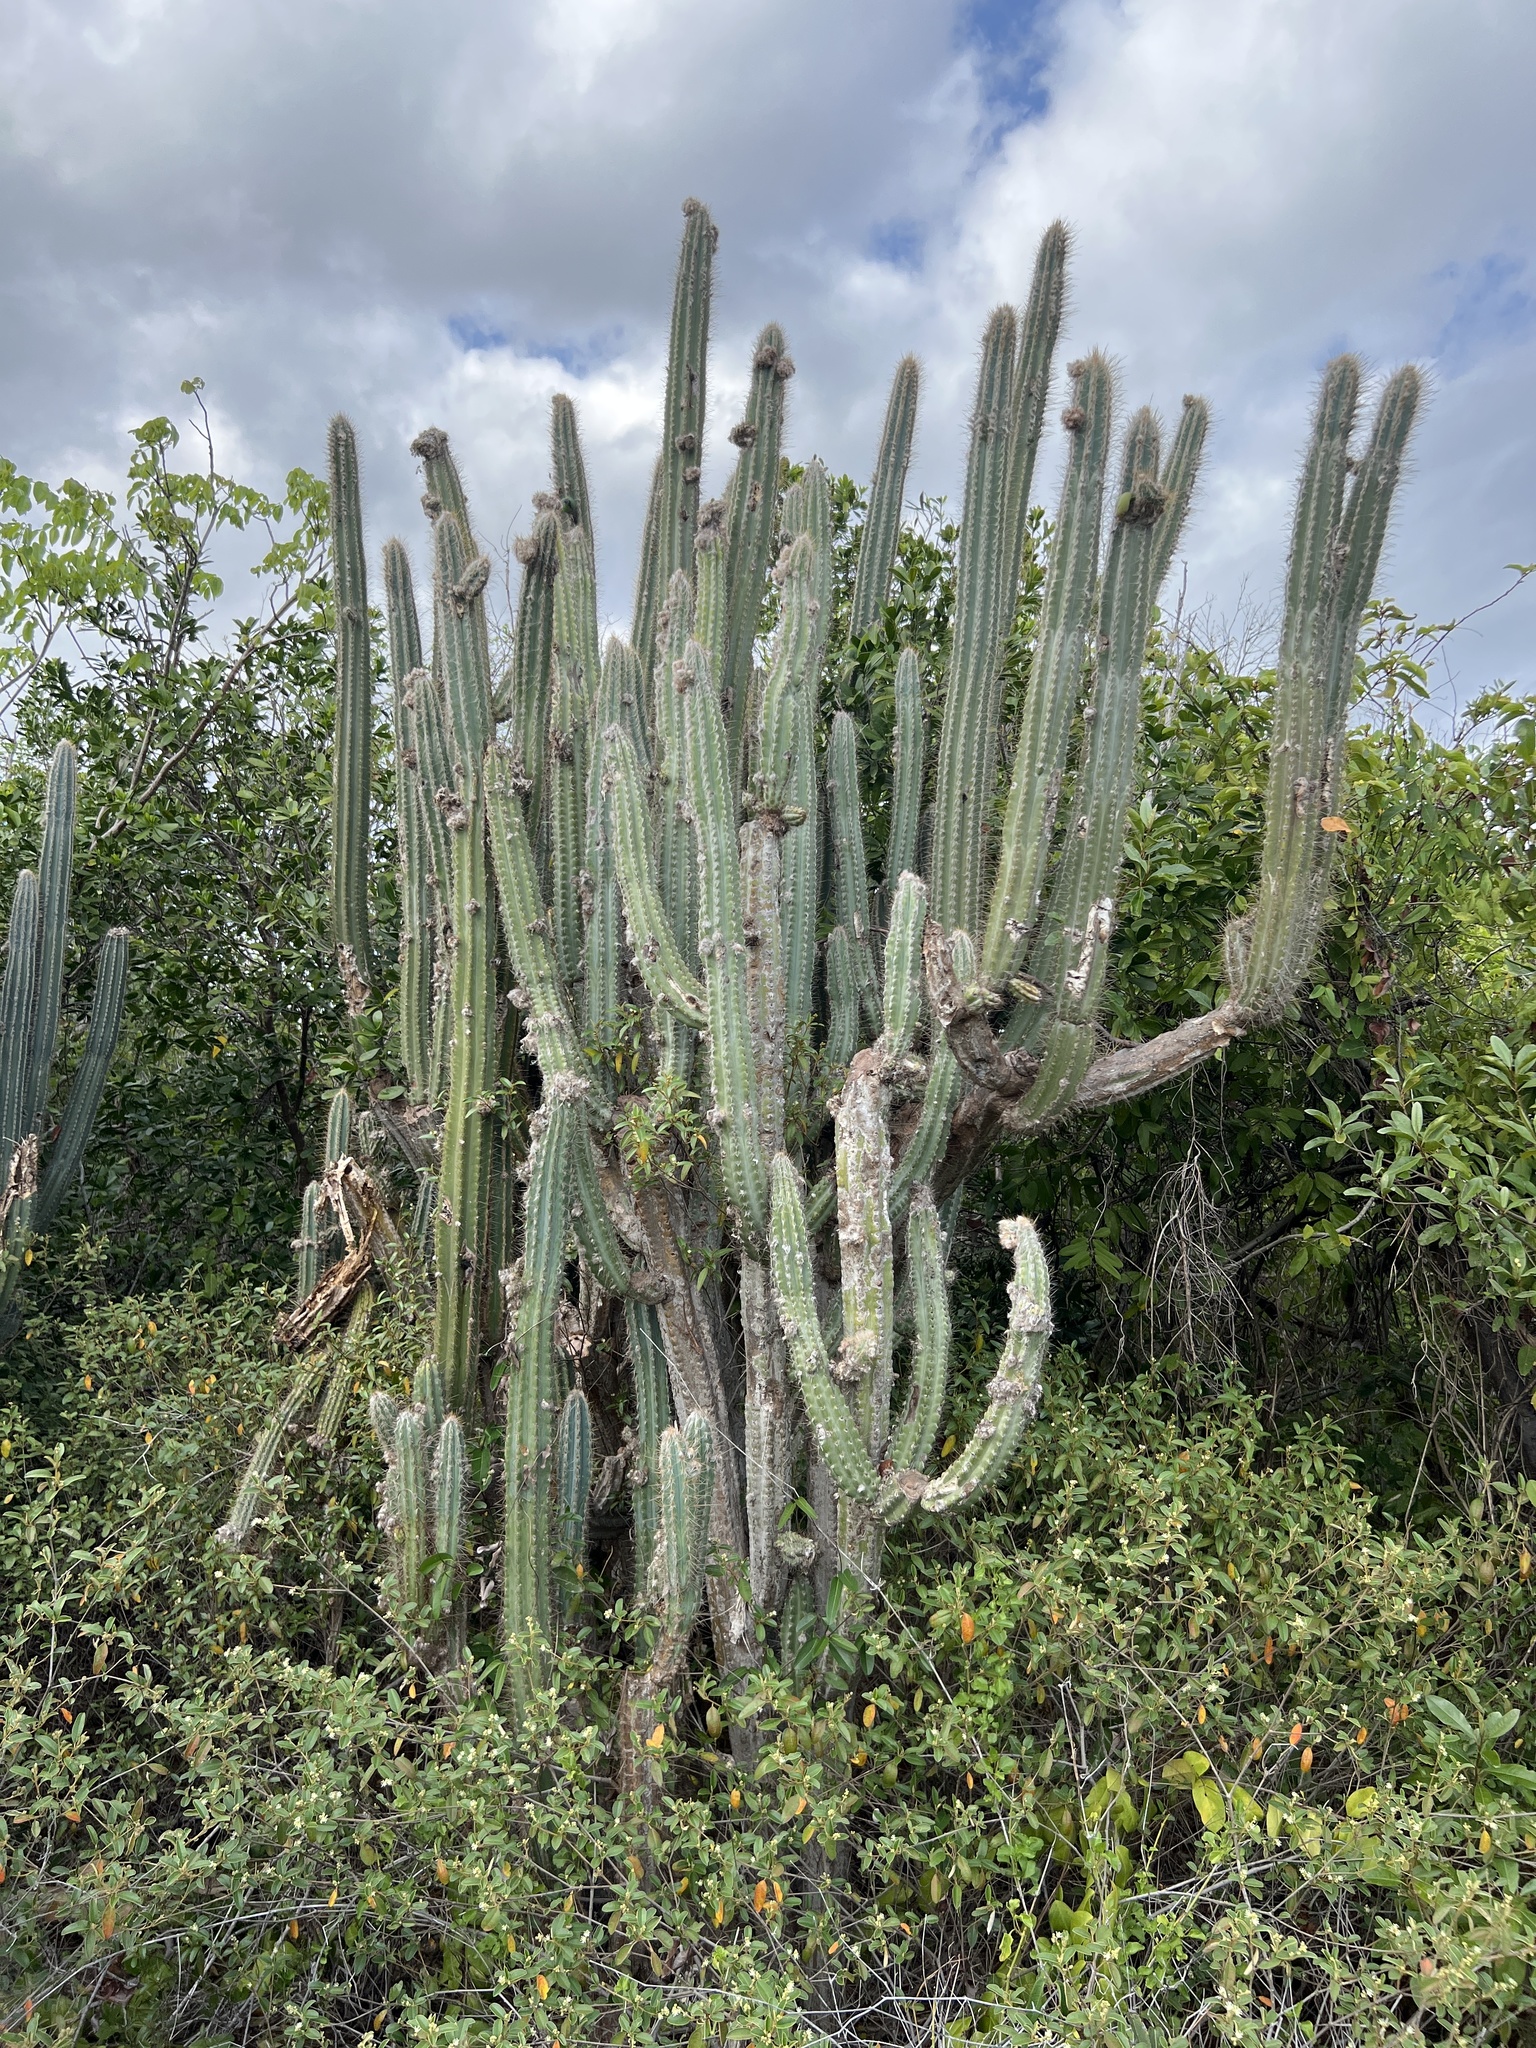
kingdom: Plantae
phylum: Tracheophyta
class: Magnoliopsida
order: Caryophyllales
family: Cactaceae
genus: Pilosocereus
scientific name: Pilosocereus armatus
